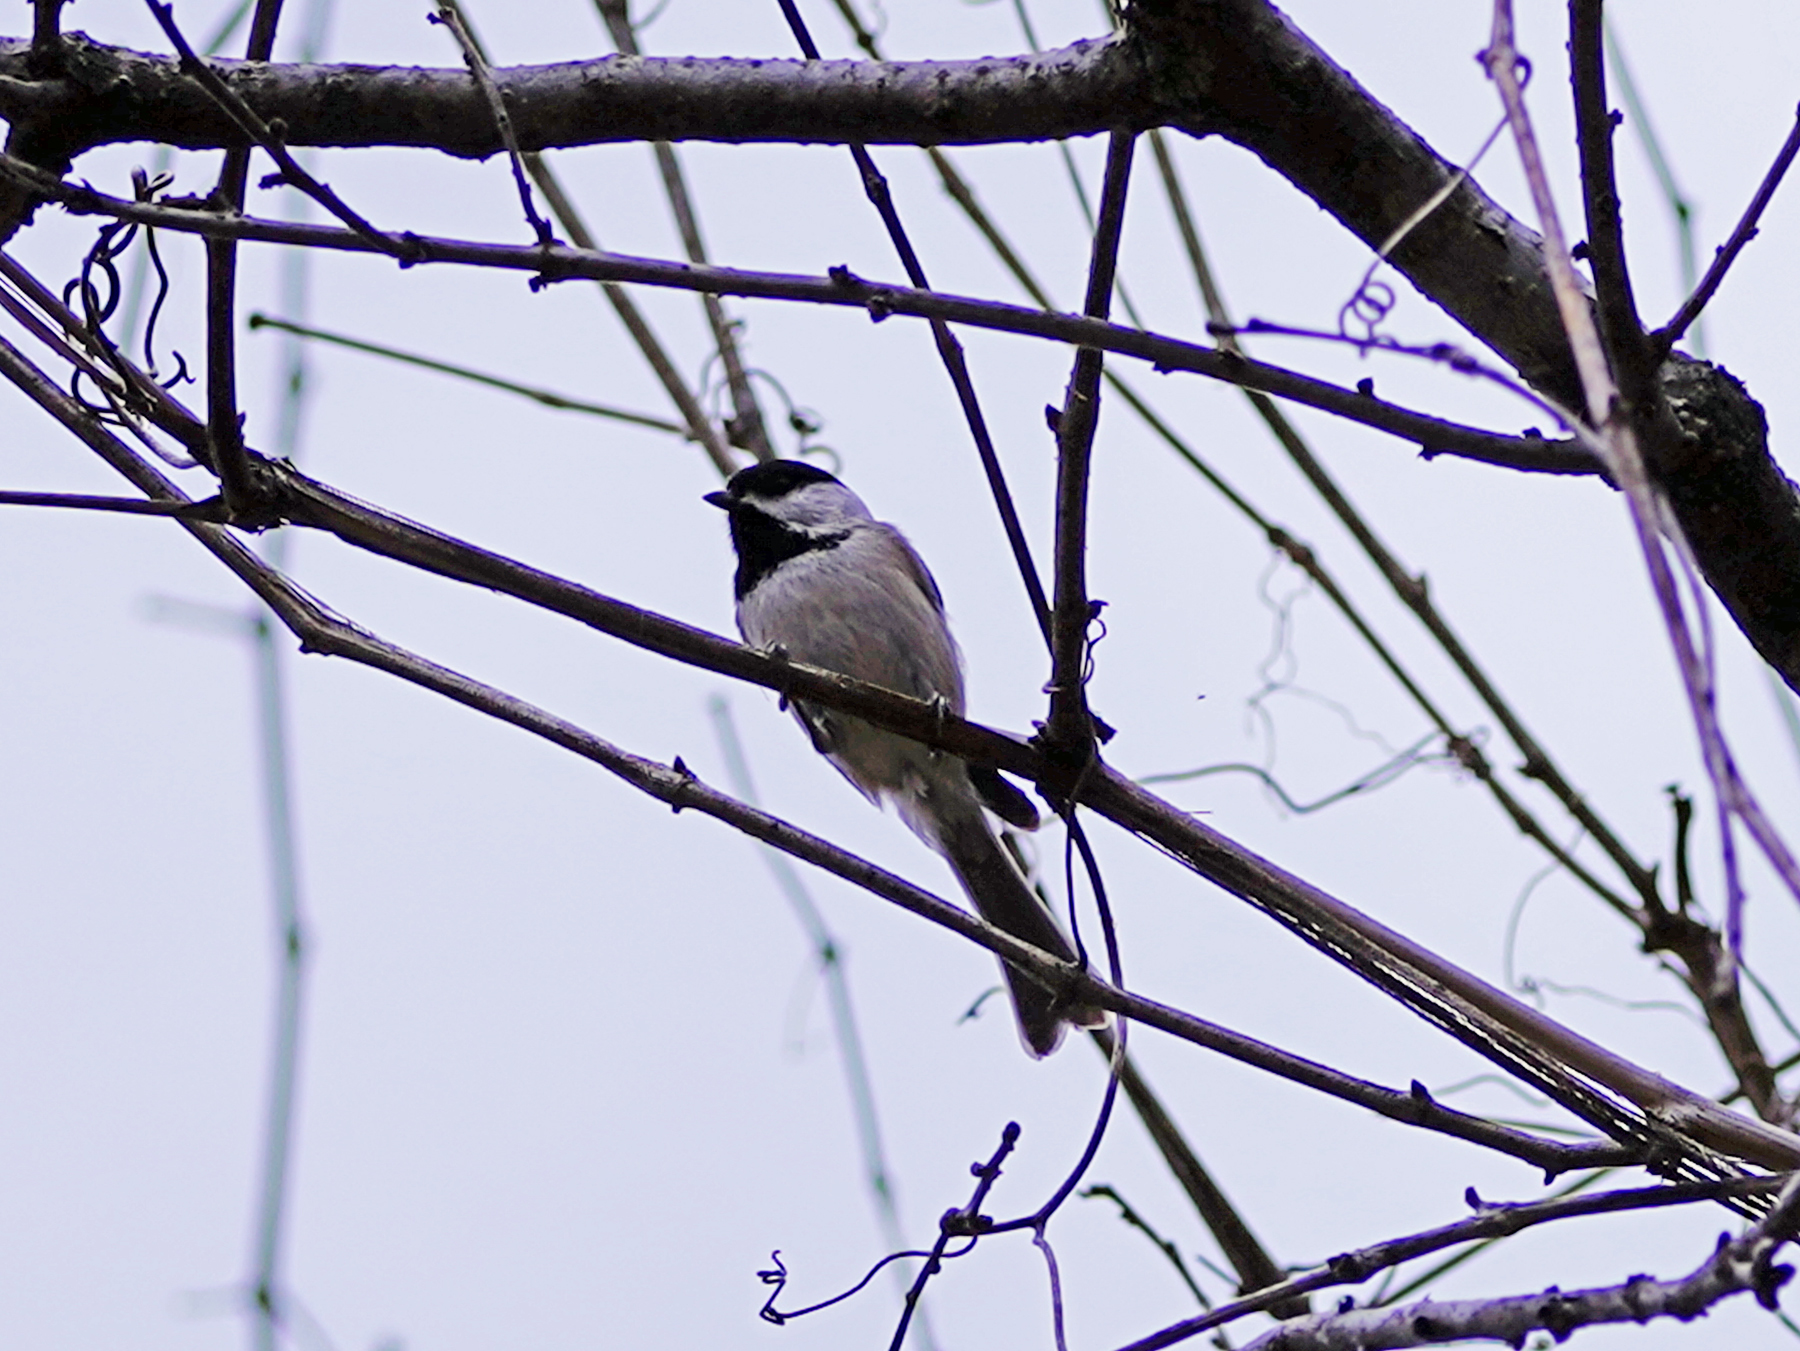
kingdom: Animalia
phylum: Chordata
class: Aves
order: Passeriformes
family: Paridae
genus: Poecile
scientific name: Poecile carolinensis
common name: Carolina chickadee
